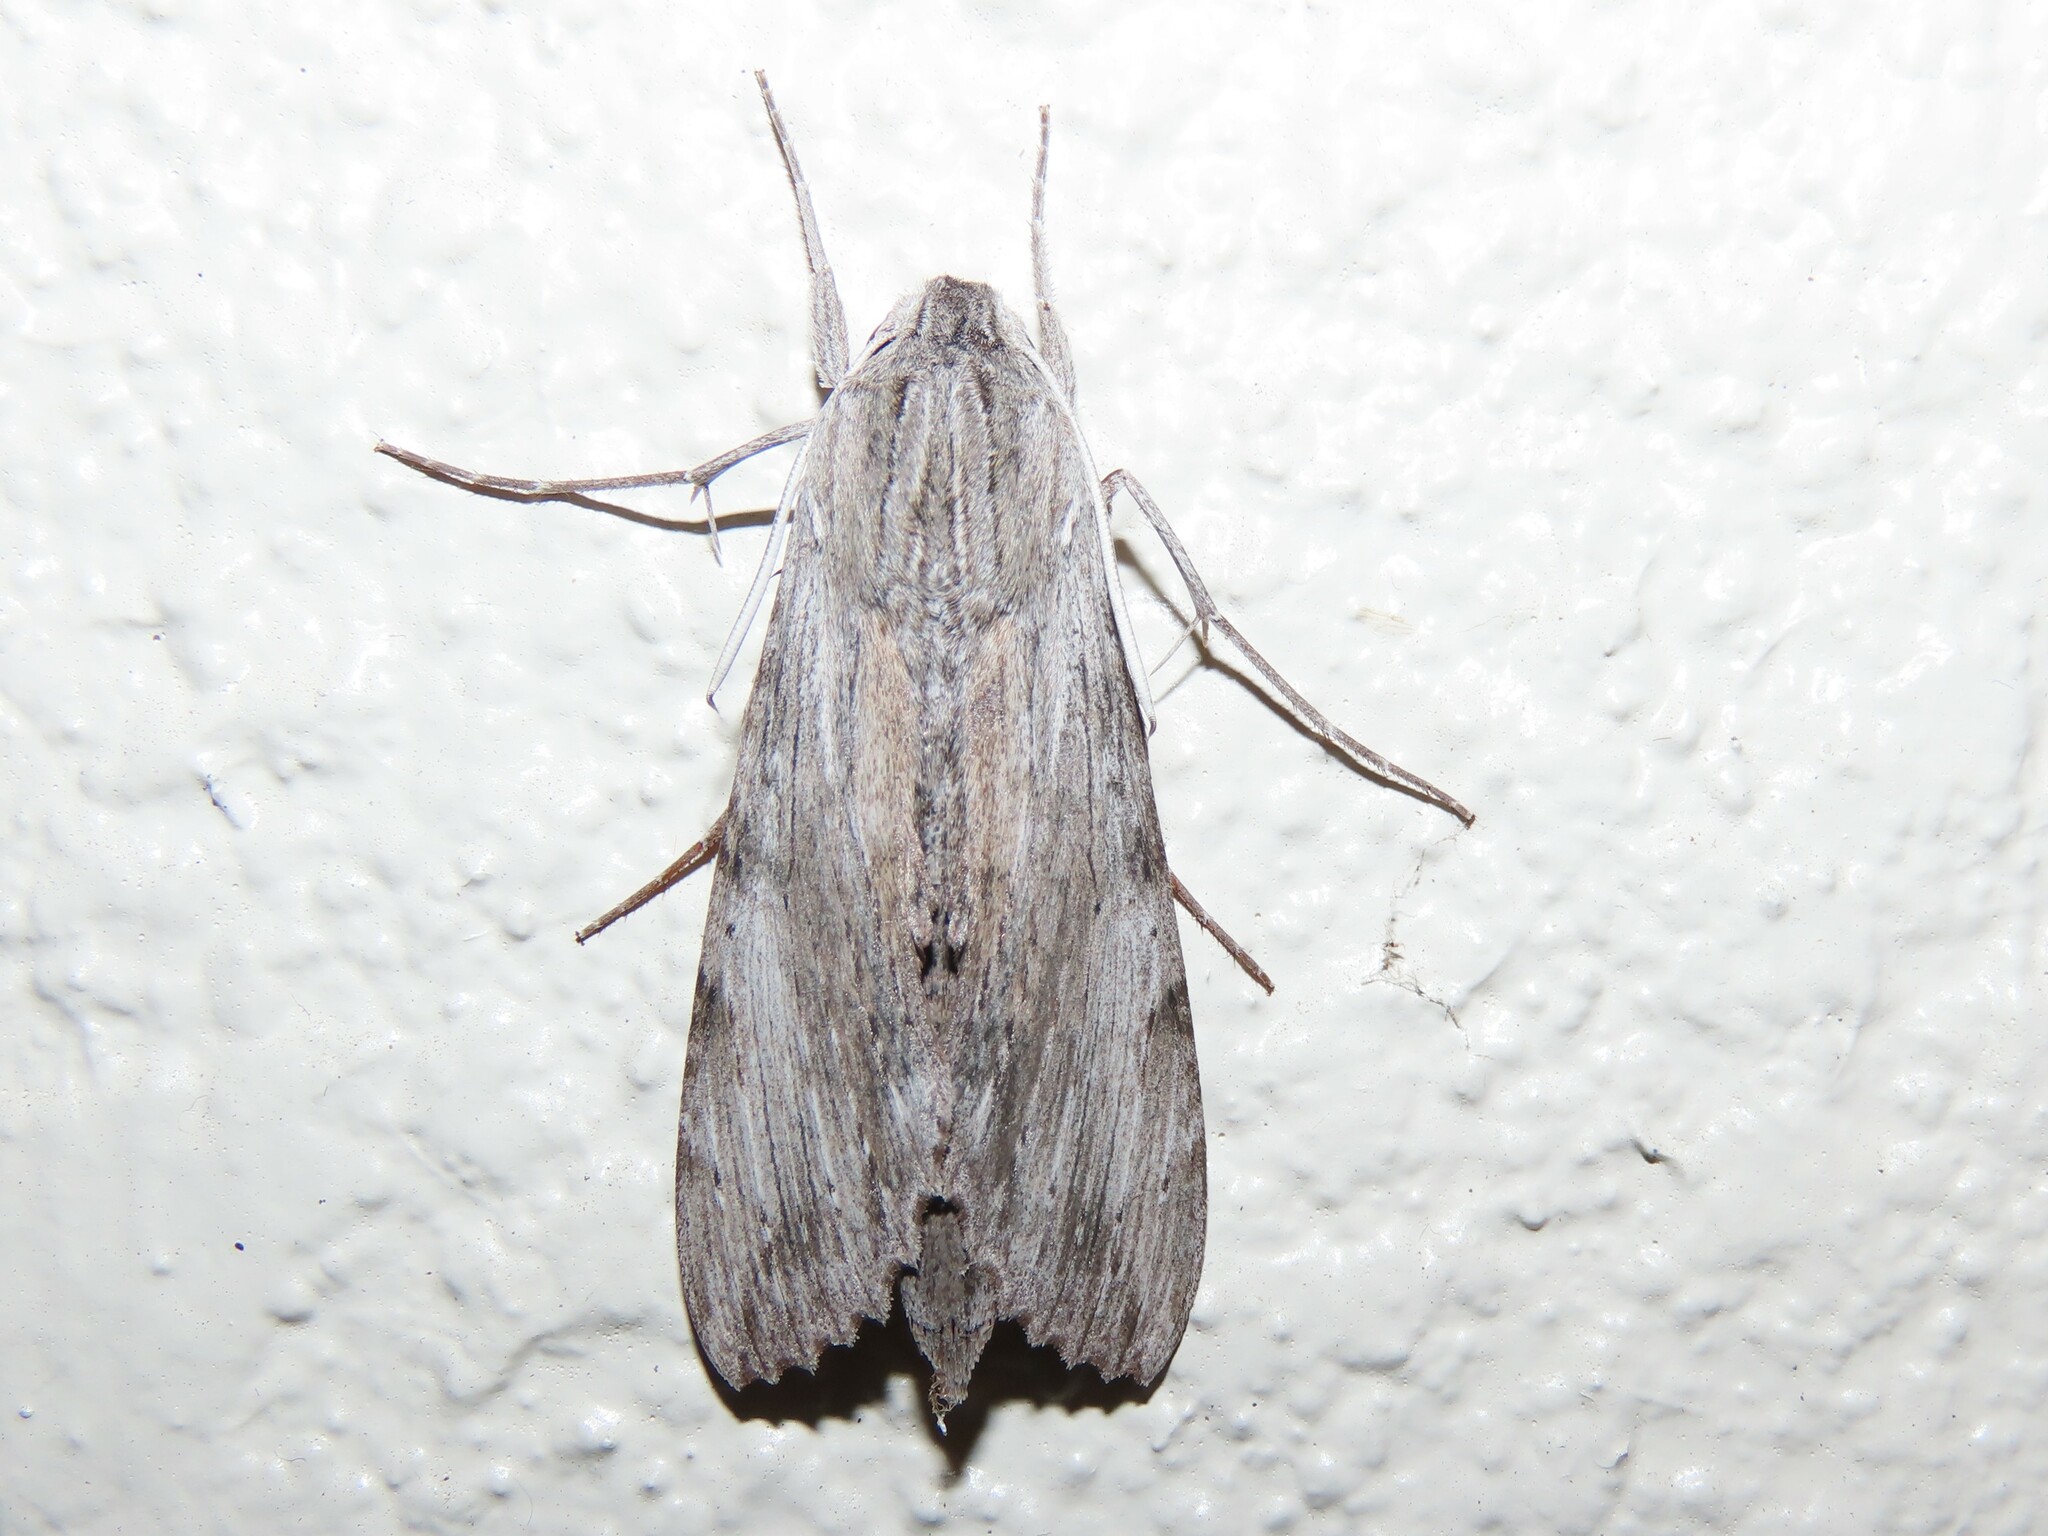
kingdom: Animalia
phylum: Arthropoda
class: Insecta
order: Lepidoptera
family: Sphingidae
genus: Erinnyis
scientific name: Erinnyis ello
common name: Ello sphinx
